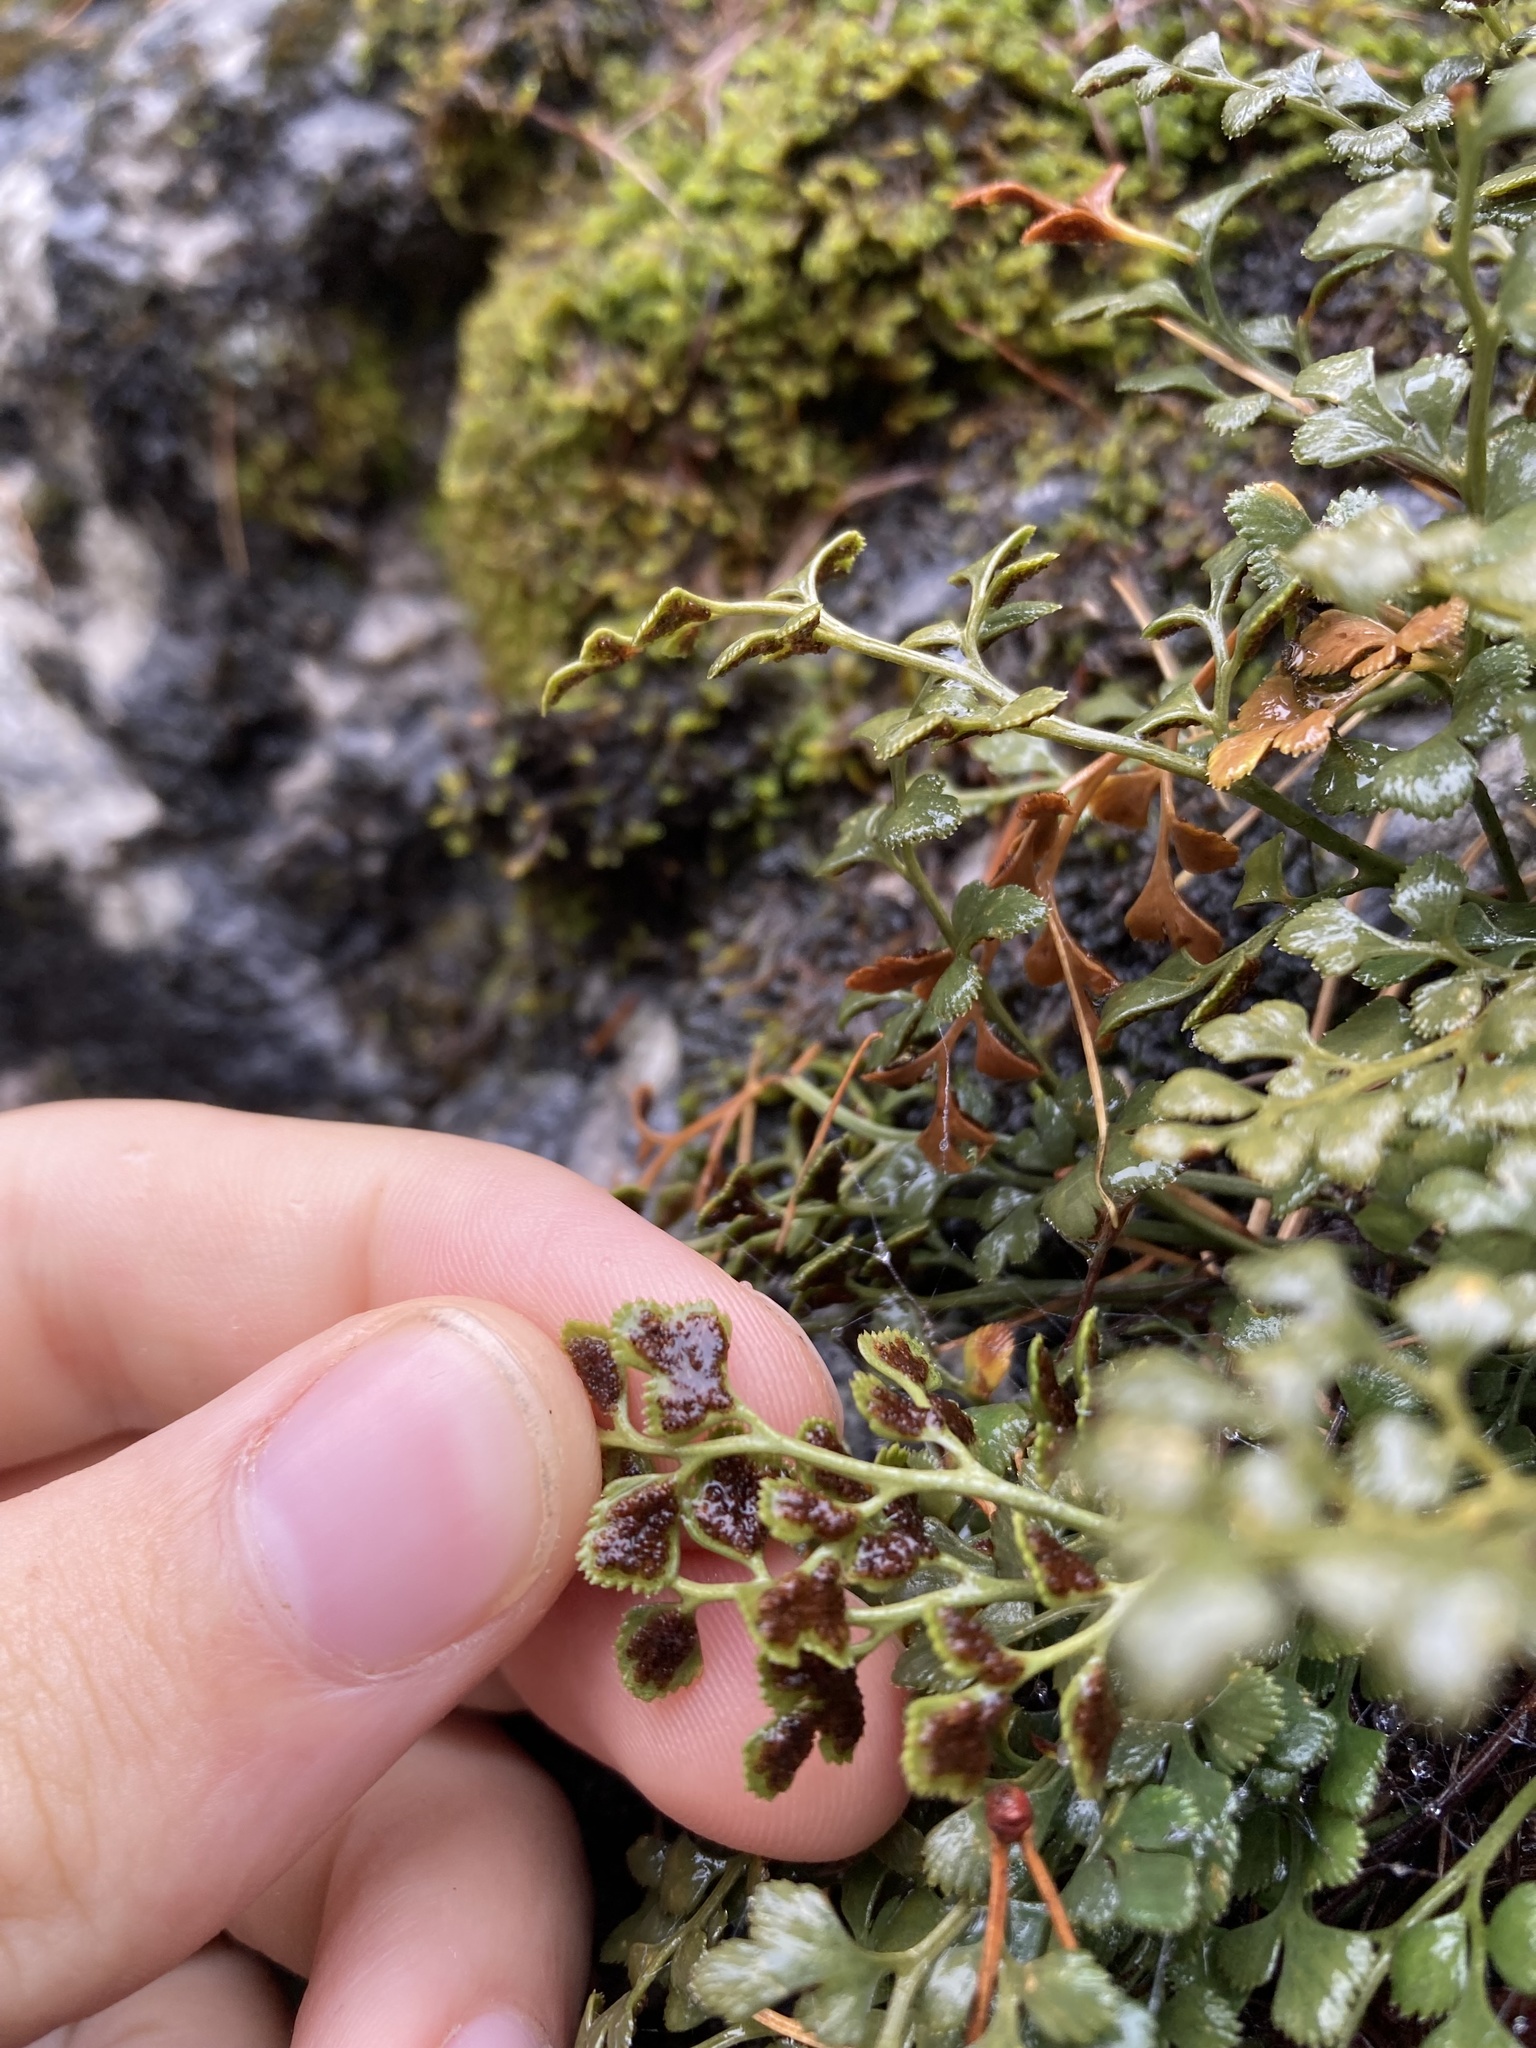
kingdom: Plantae
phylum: Tracheophyta
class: Polypodiopsida
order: Polypodiales
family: Aspleniaceae
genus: Asplenium
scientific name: Asplenium ruta-muraria
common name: Wall-rue
